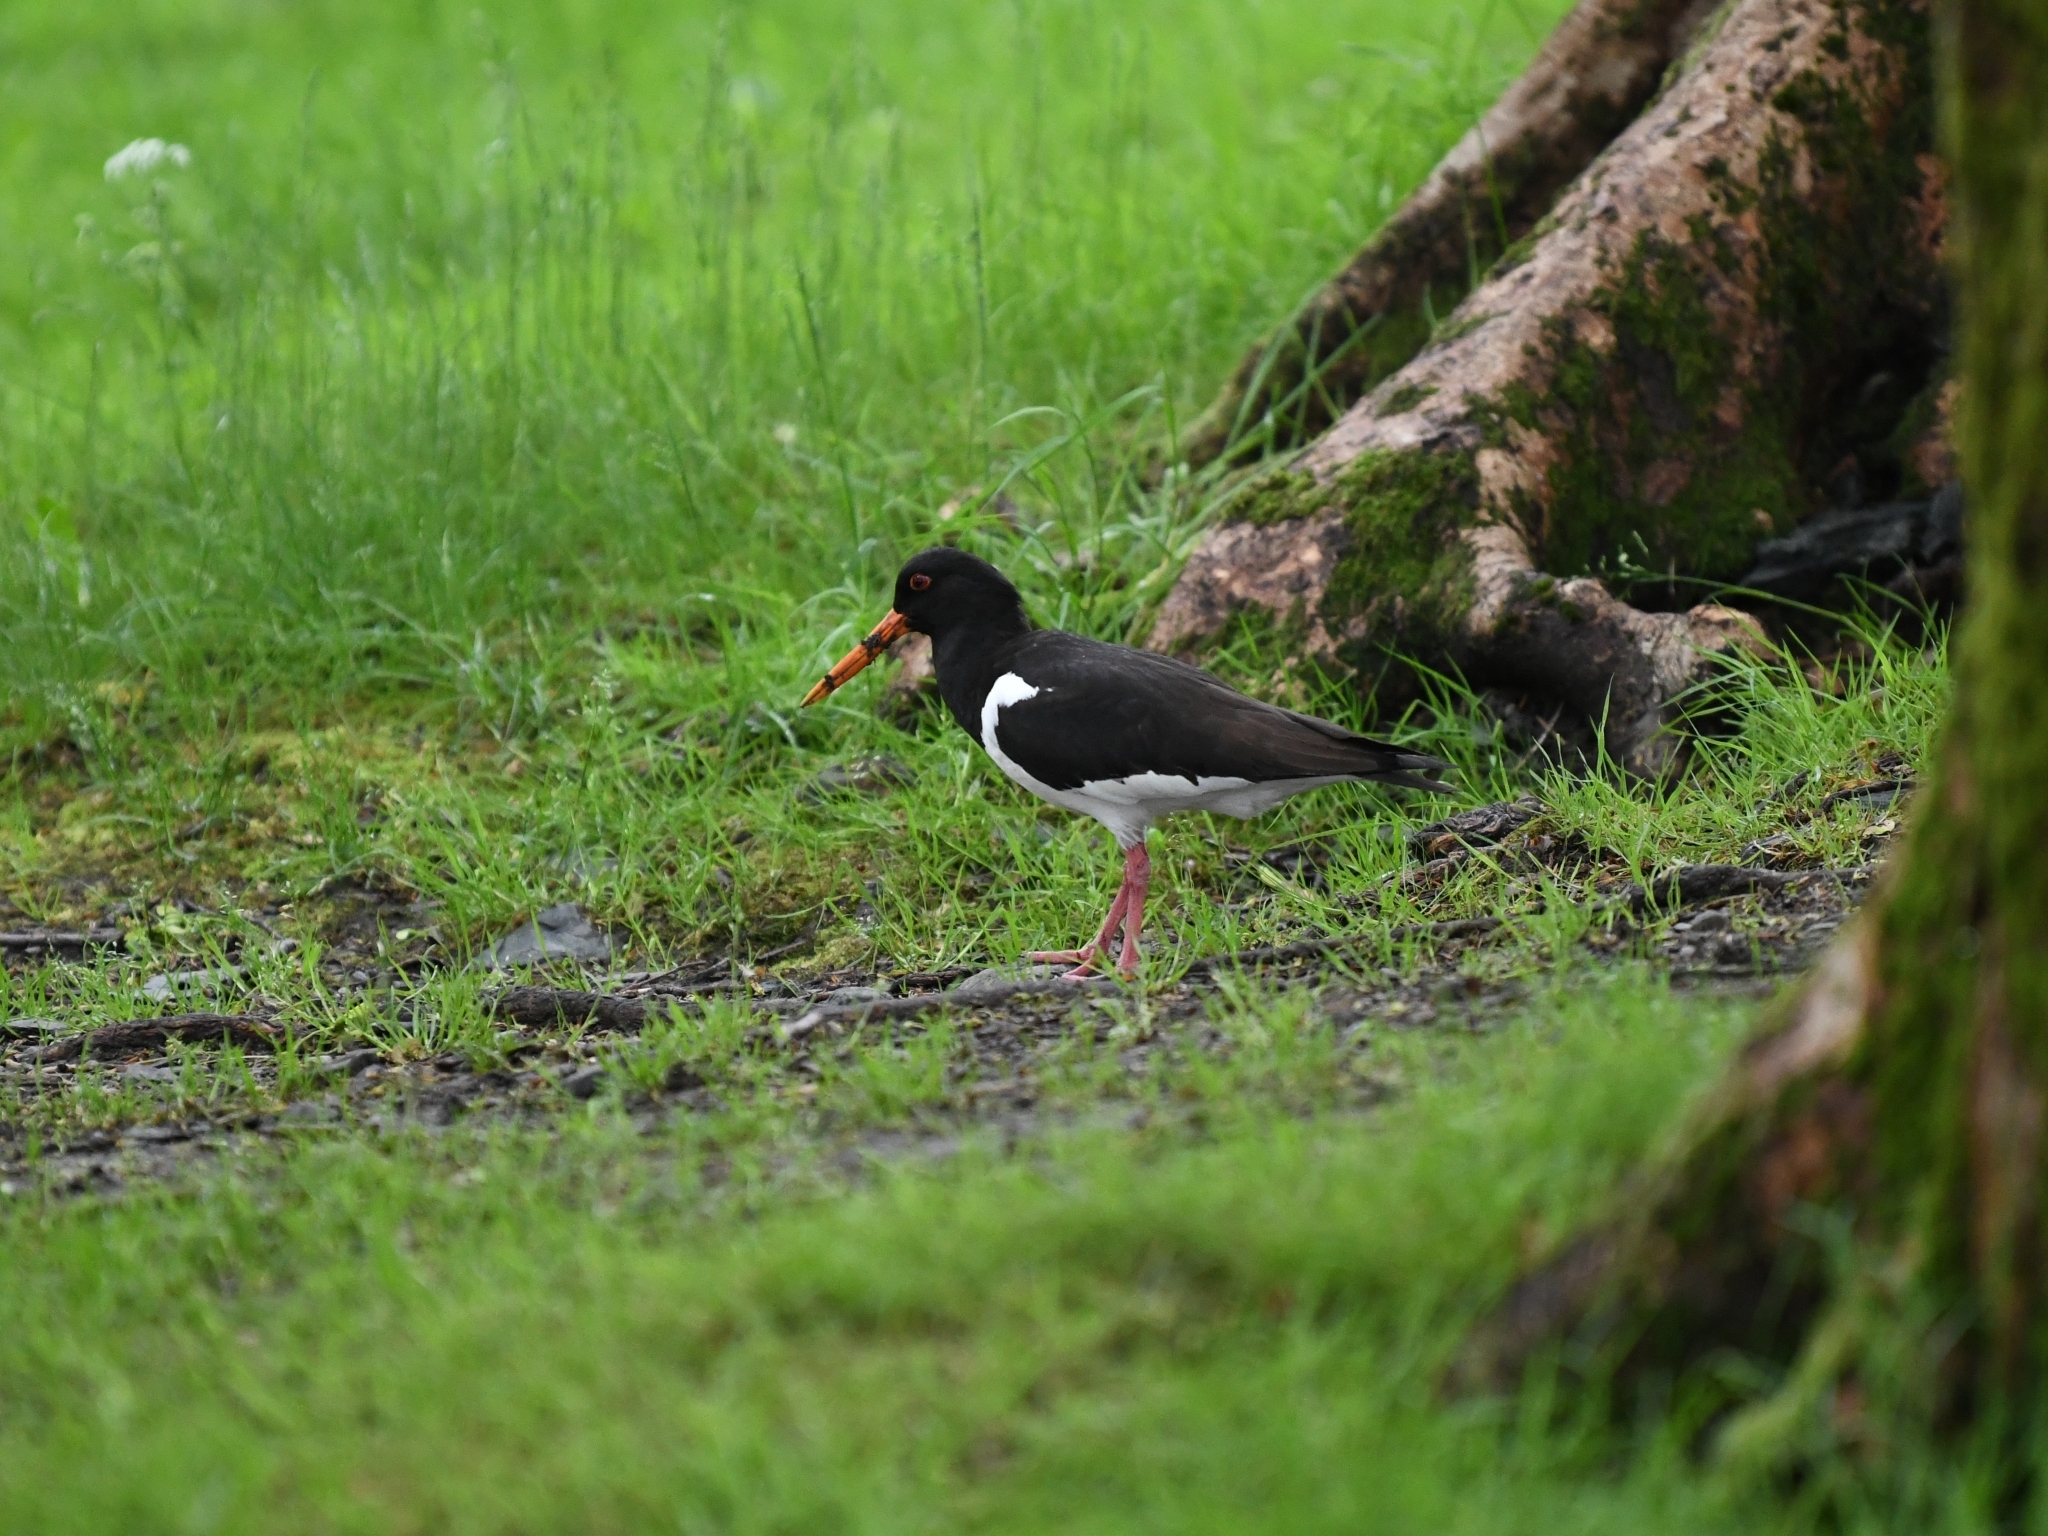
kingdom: Animalia
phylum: Chordata
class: Aves
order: Charadriiformes
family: Haematopodidae
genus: Haematopus
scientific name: Haematopus ostralegus
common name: Eurasian oystercatcher
